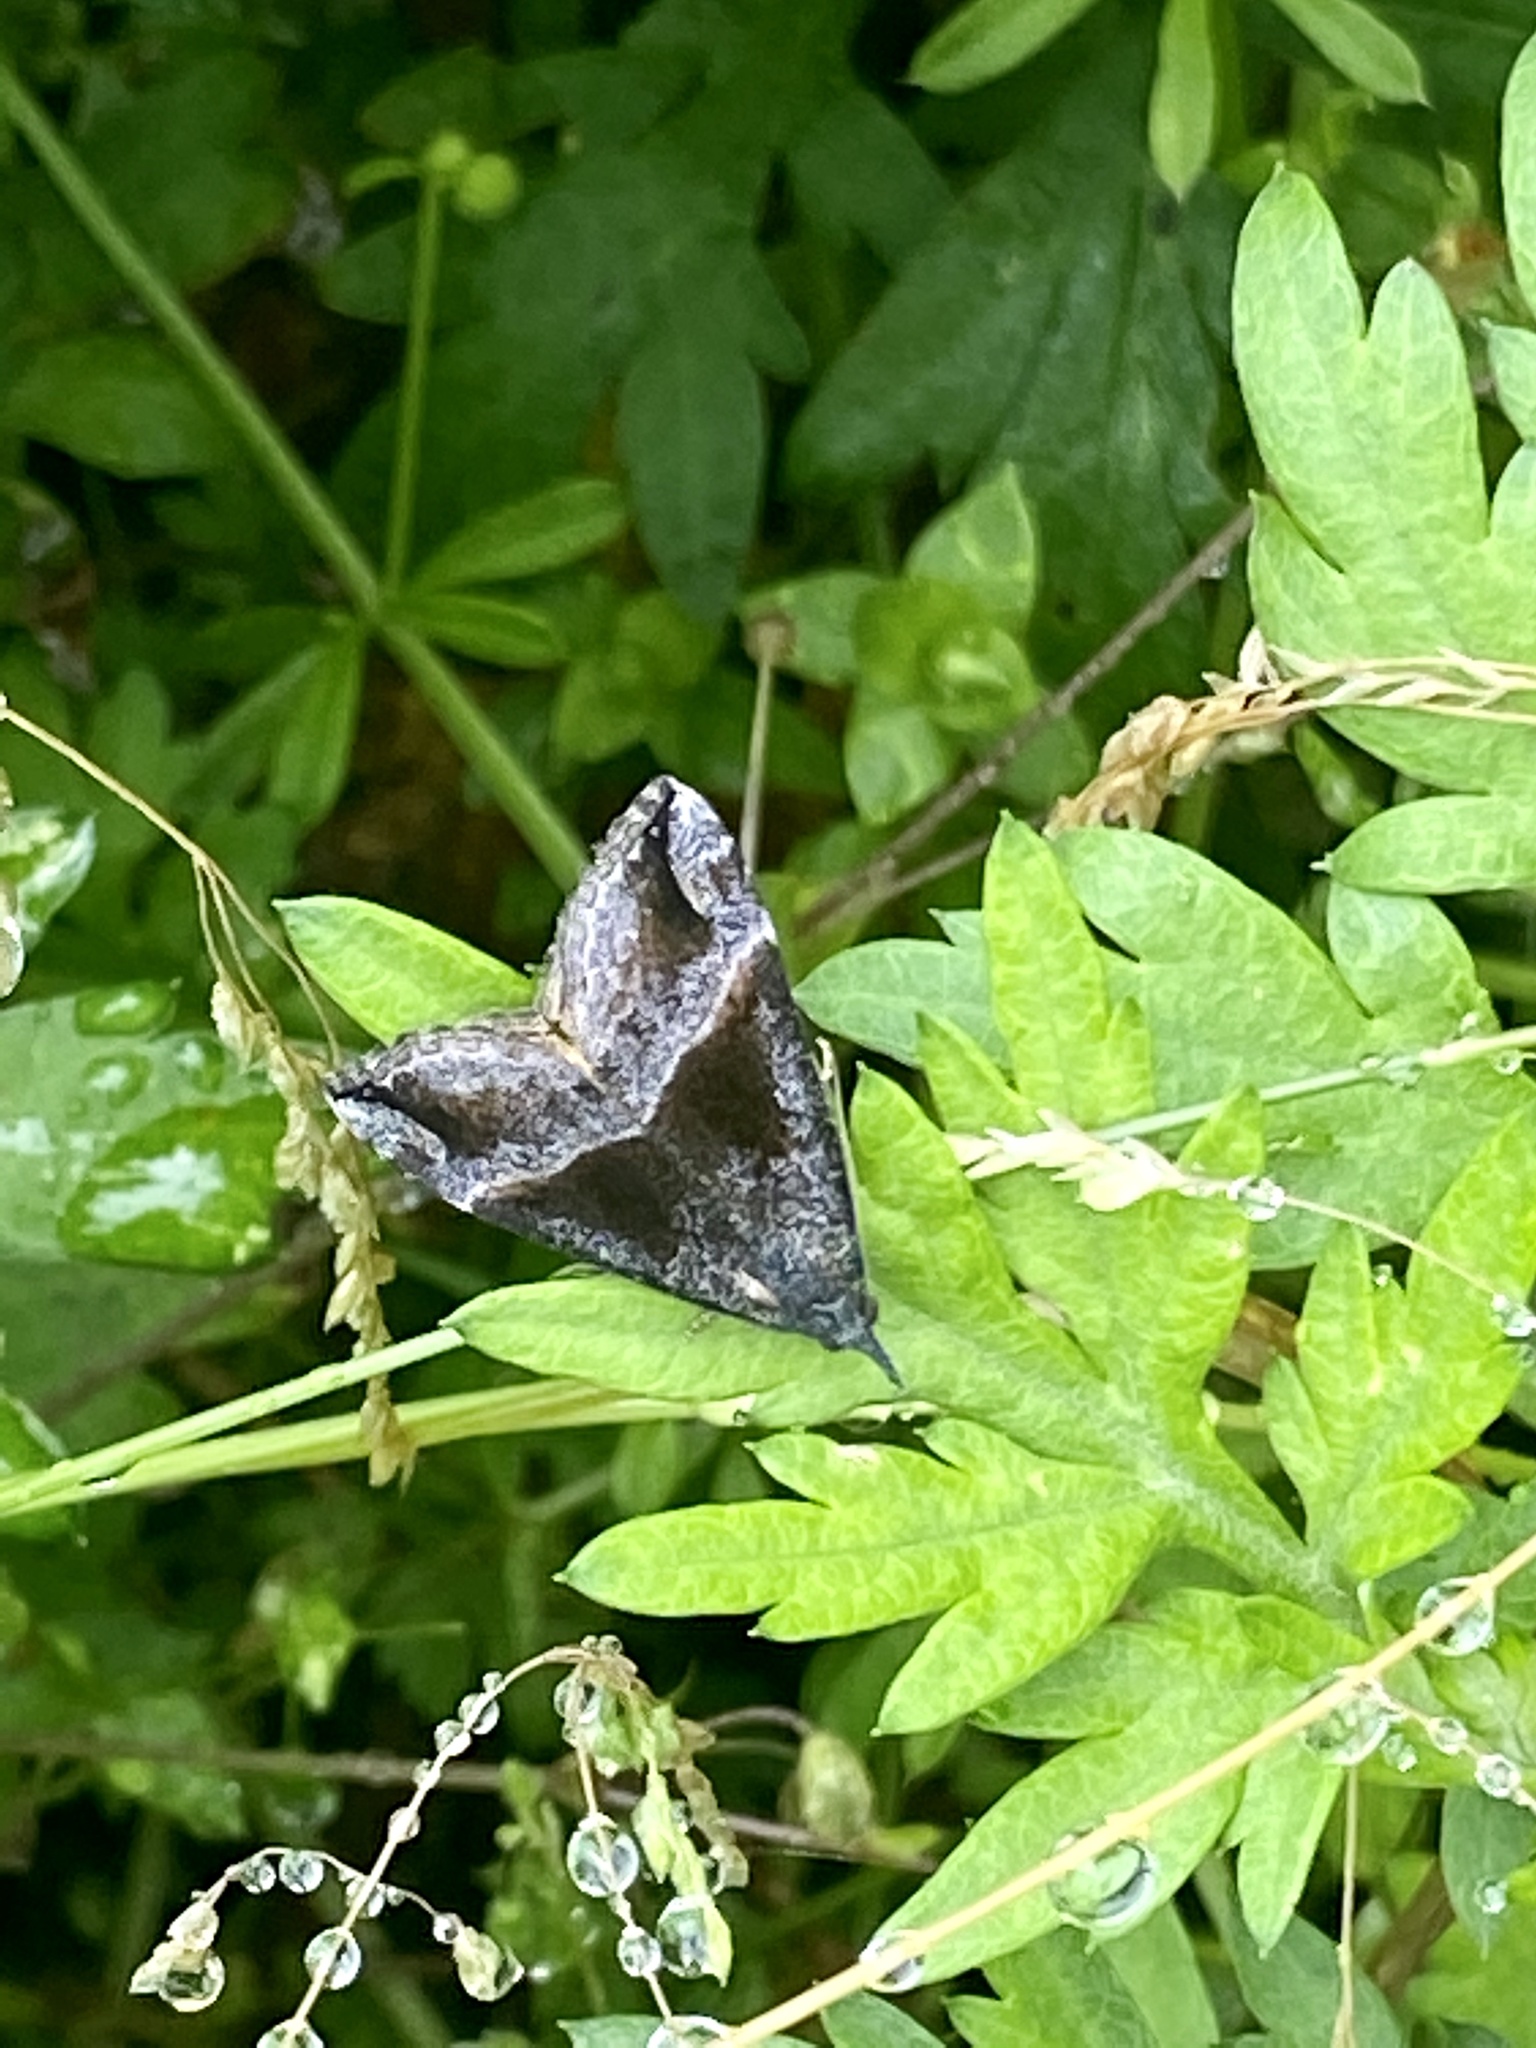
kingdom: Animalia
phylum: Arthropoda
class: Insecta
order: Lepidoptera
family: Erebidae
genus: Hypena
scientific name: Hypena amica
